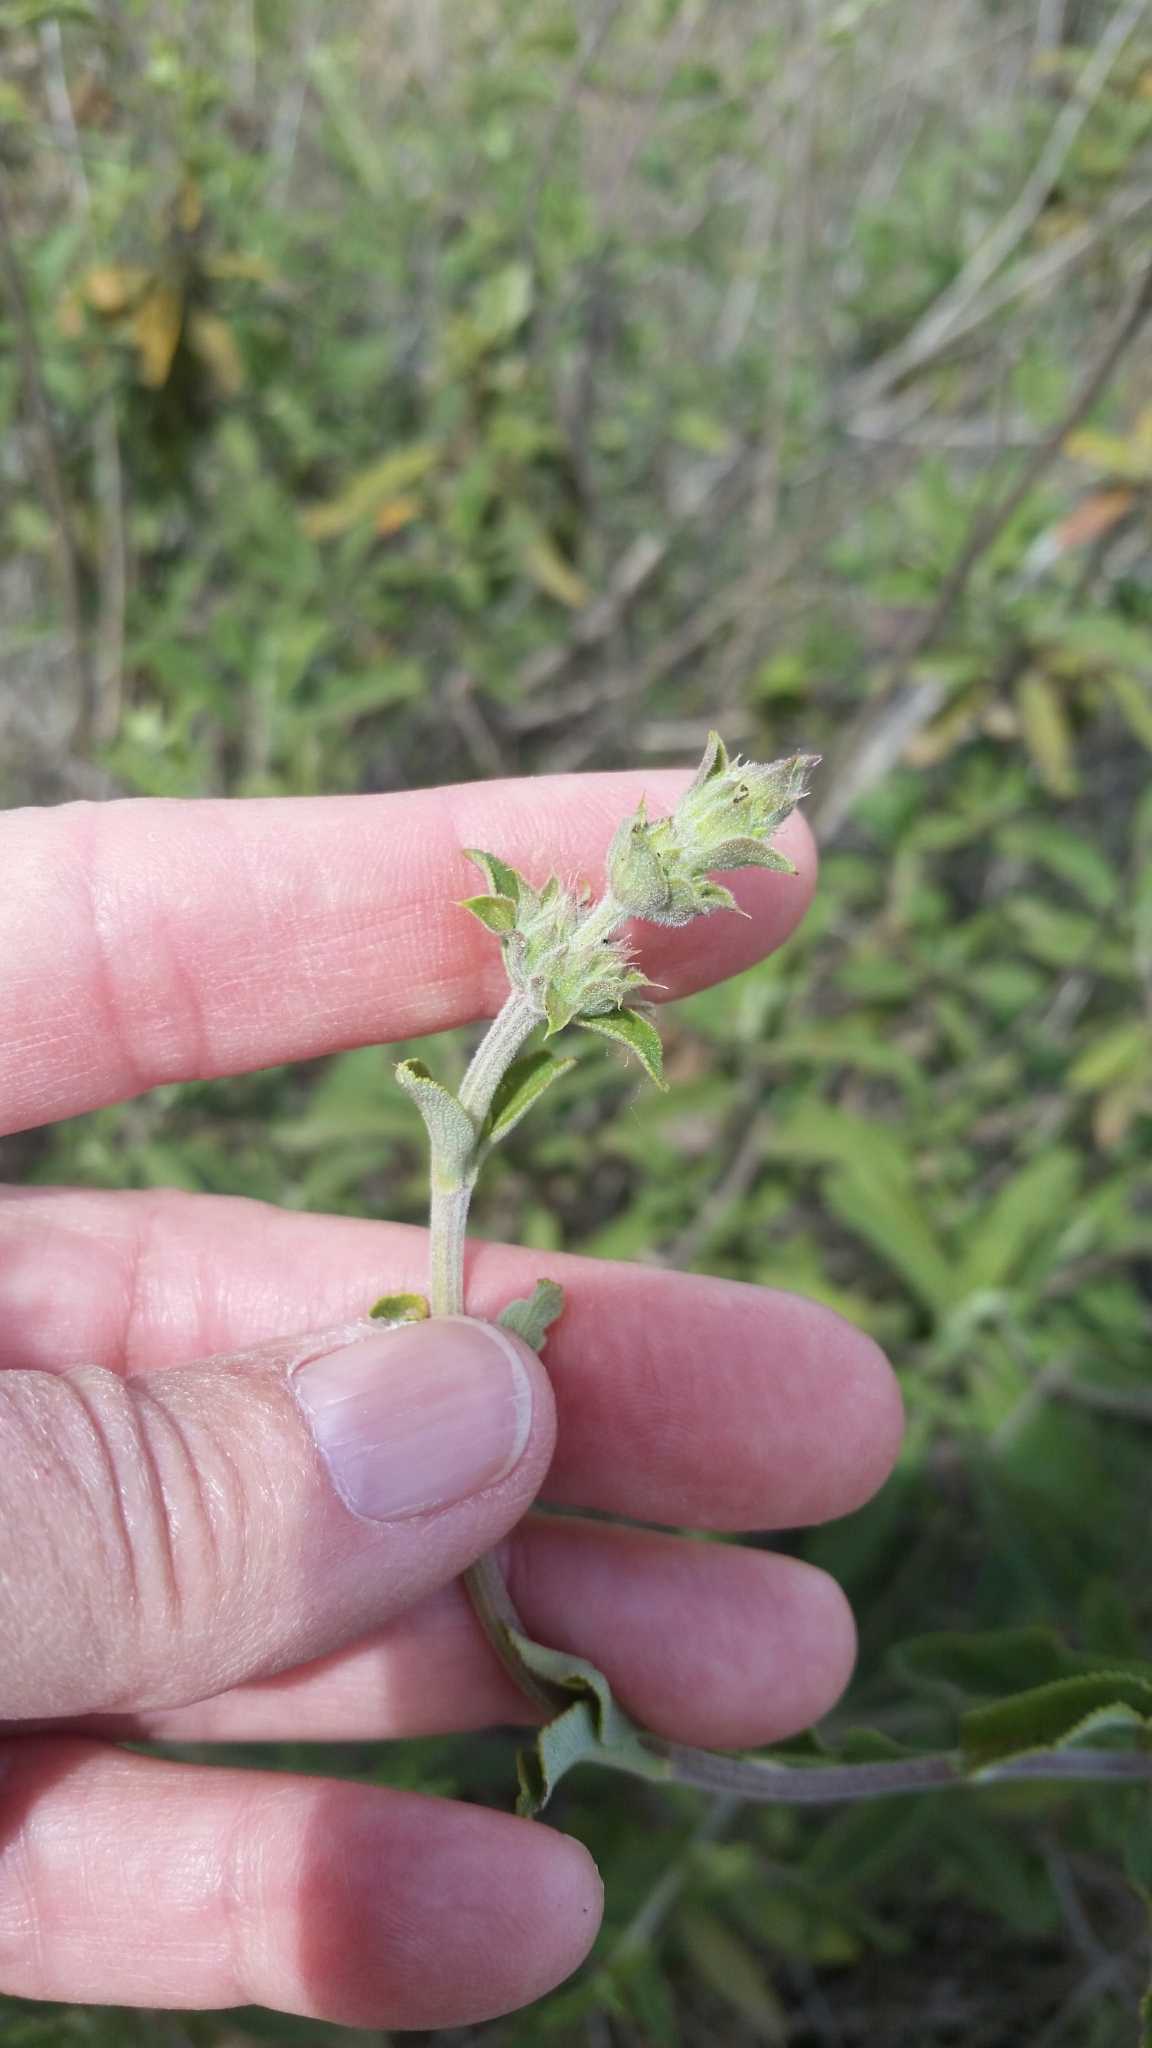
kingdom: Plantae
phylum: Tracheophyta
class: Magnoliopsida
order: Lamiales
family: Lamiaceae
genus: Salvia
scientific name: Salvia mellifera
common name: Black sage
